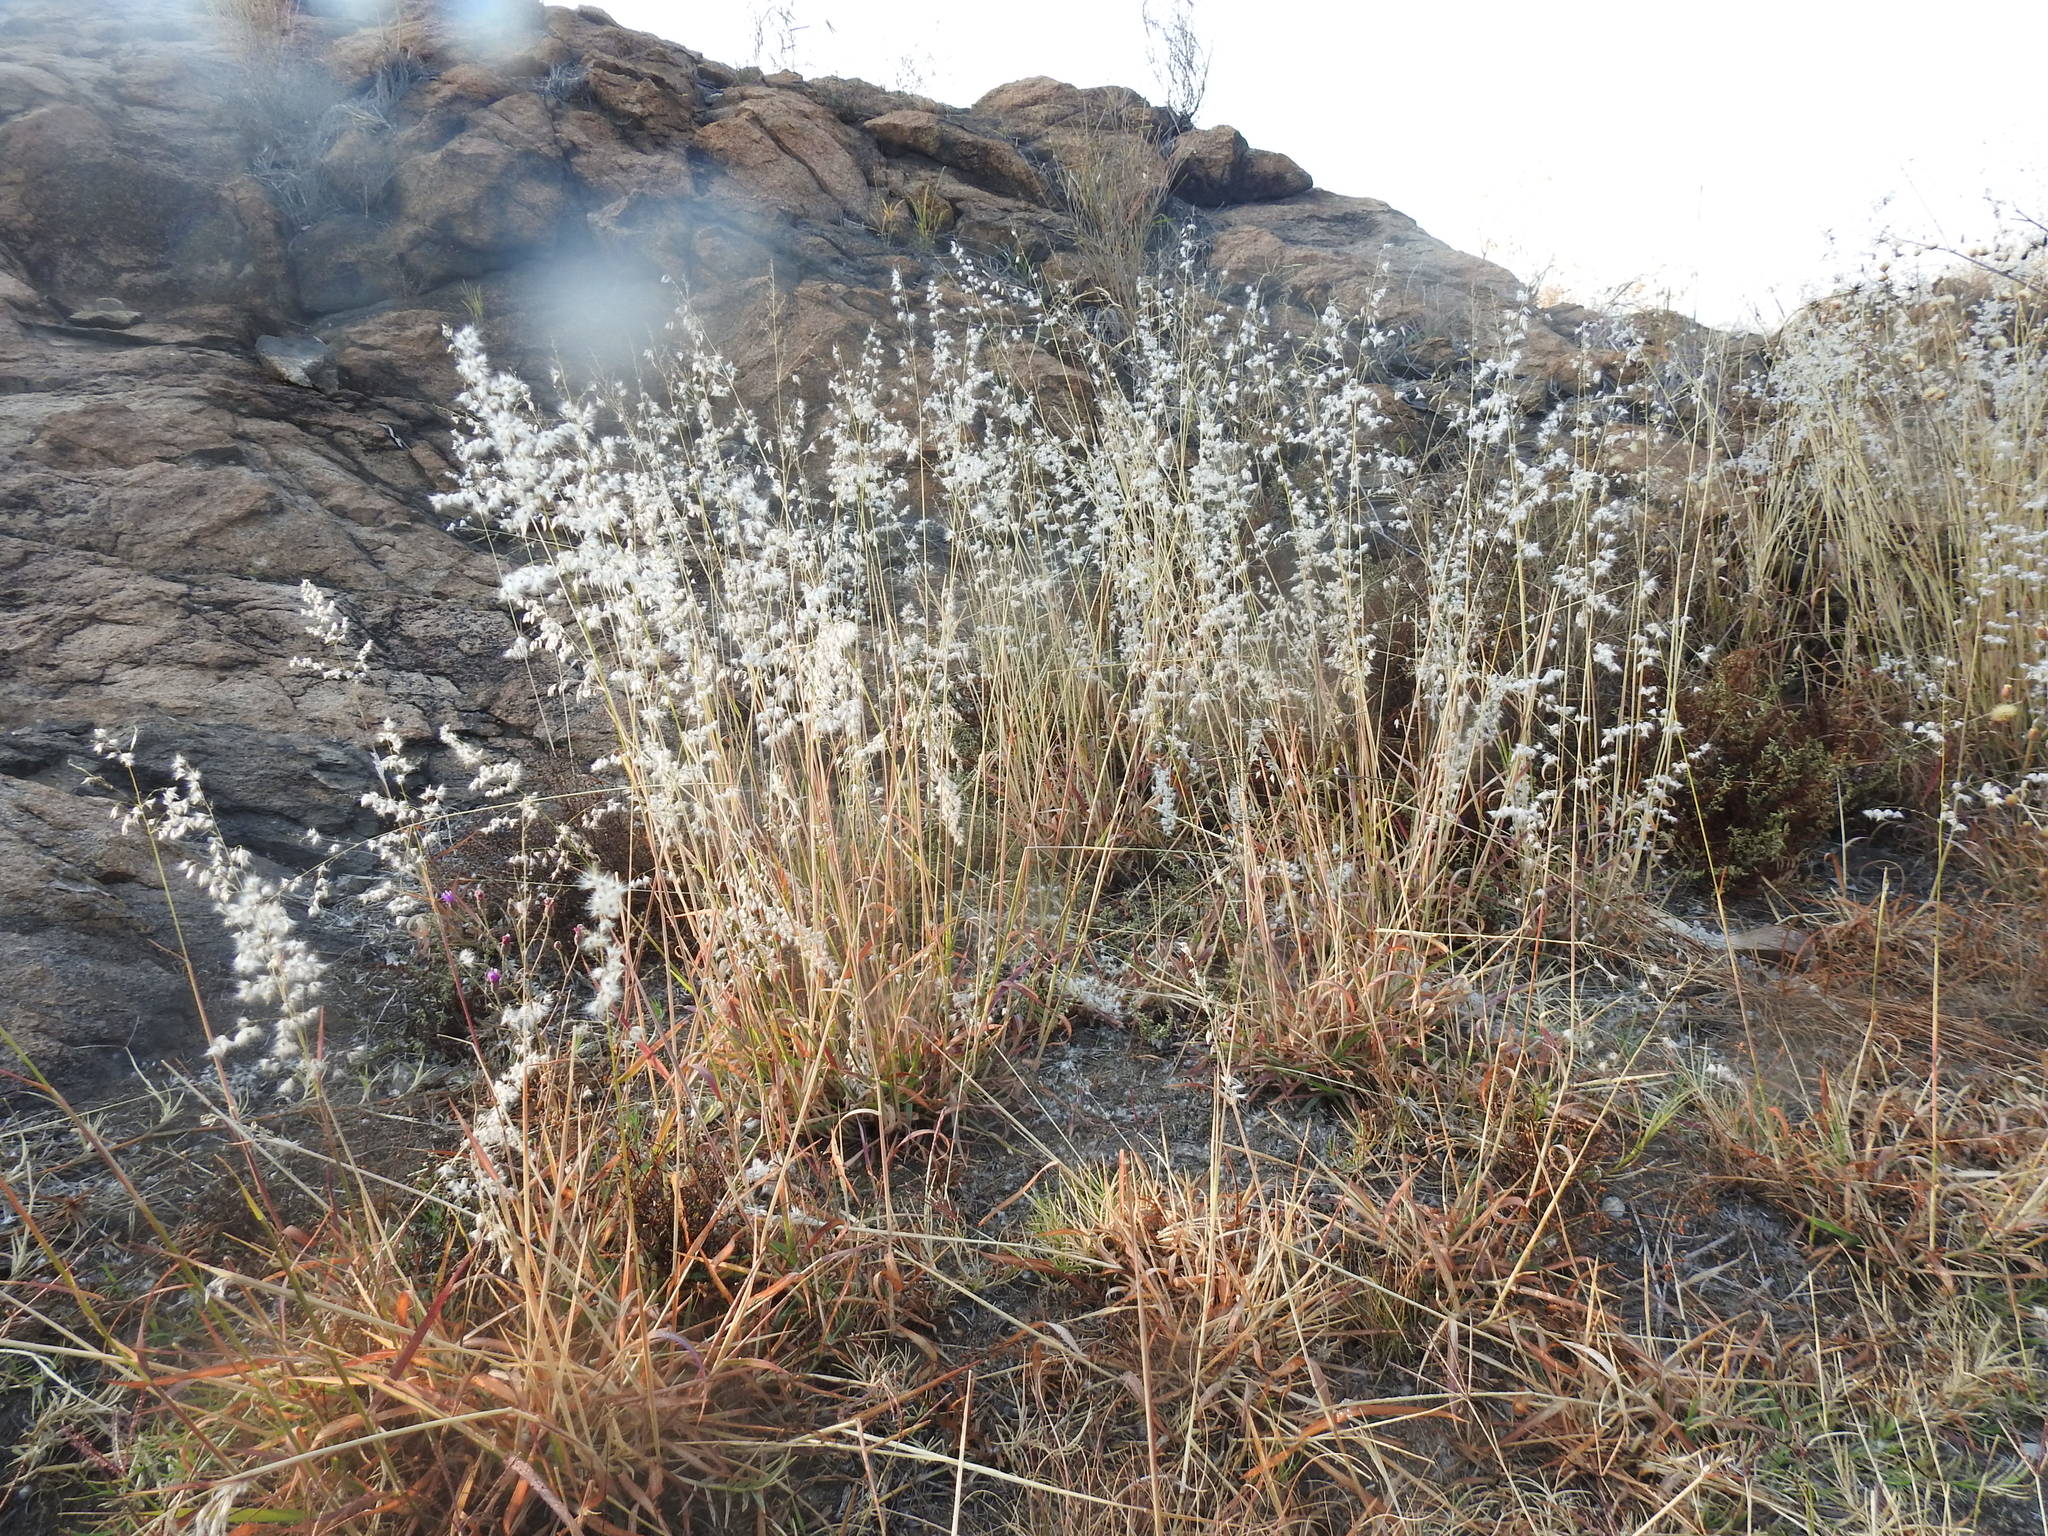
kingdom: Plantae
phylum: Tracheophyta
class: Liliopsida
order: Poales
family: Poaceae
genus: Melinis
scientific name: Melinis repens
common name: Rose natal grass
